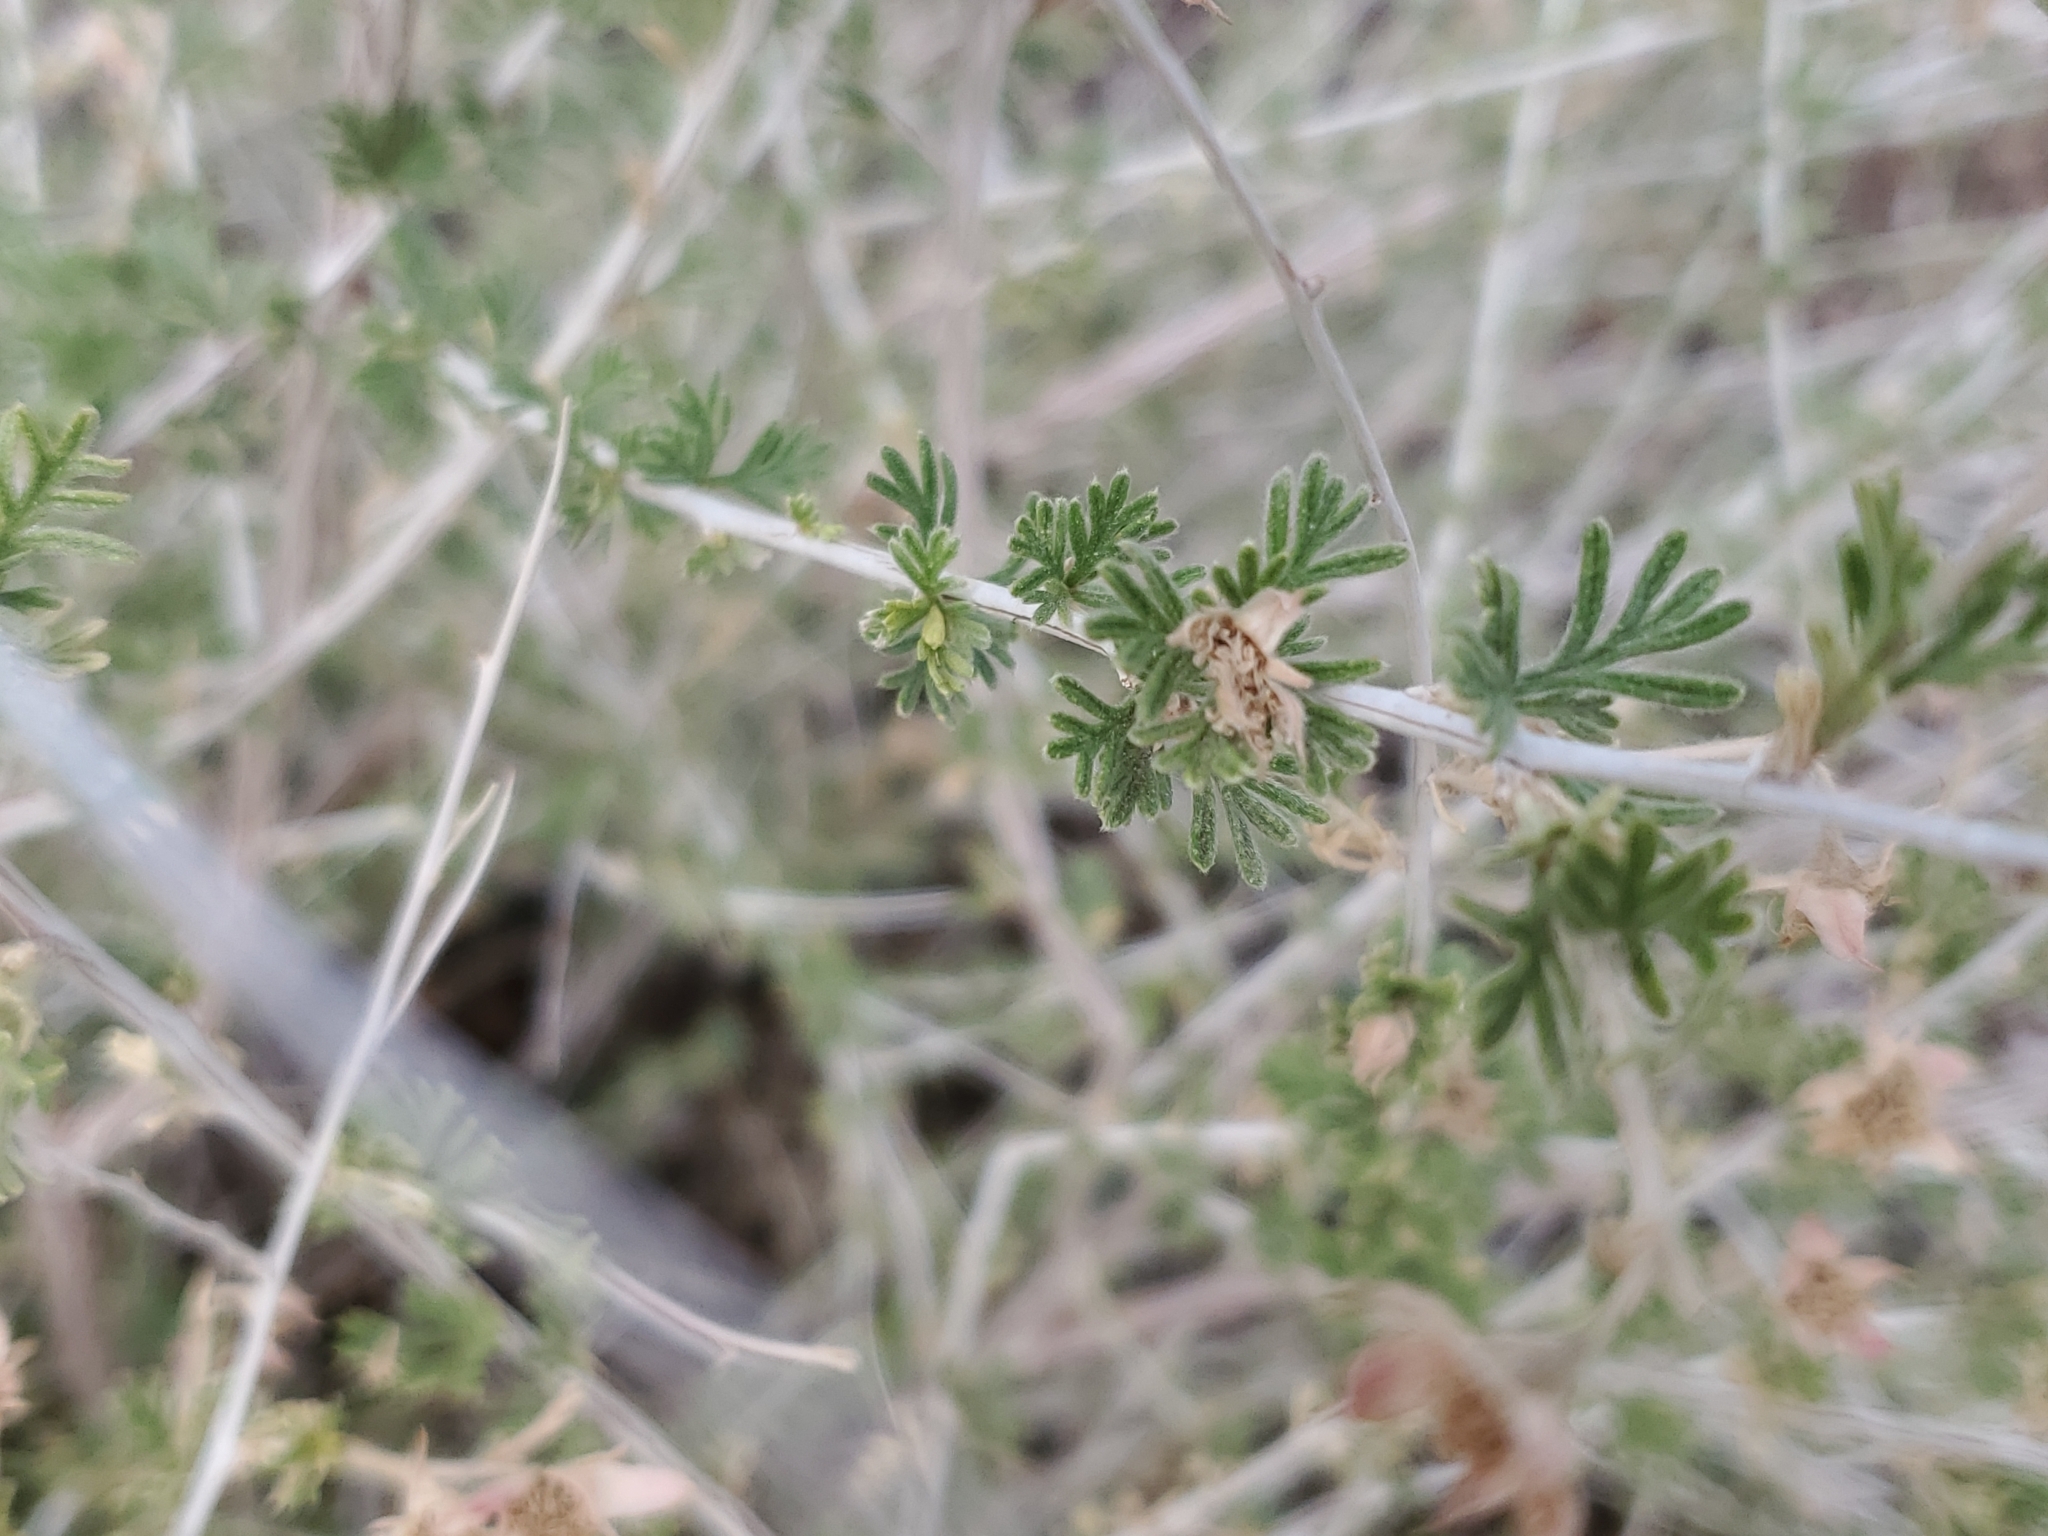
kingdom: Plantae
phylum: Tracheophyta
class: Magnoliopsida
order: Rosales
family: Rosaceae
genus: Fallugia
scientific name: Fallugia paradoxa
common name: Apache-plume
